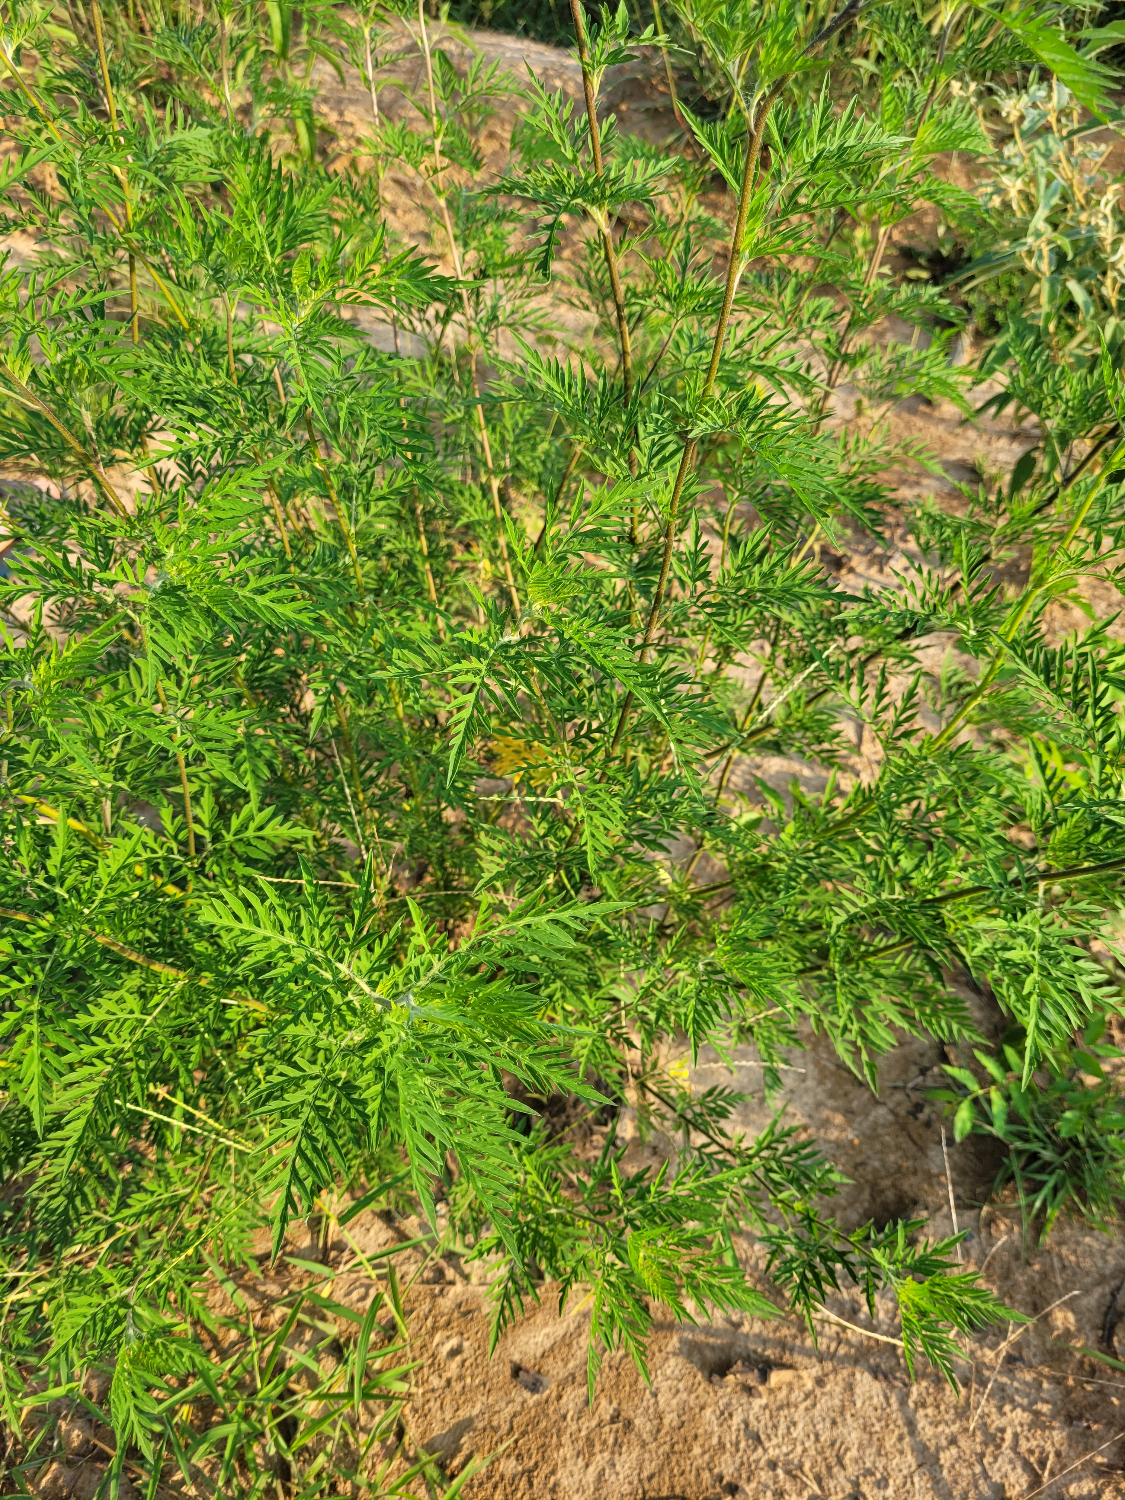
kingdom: Plantae
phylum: Tracheophyta
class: Magnoliopsida
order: Asterales
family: Asteraceae
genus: Ambrosia
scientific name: Ambrosia artemisiifolia
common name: Annual ragweed
